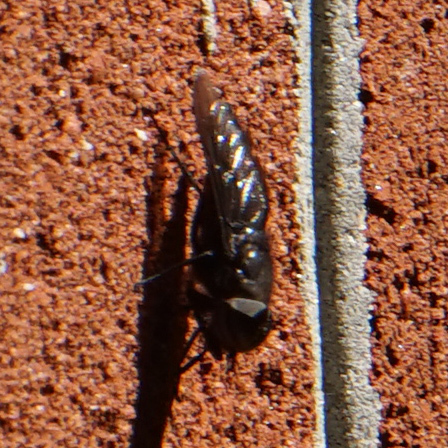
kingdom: Animalia
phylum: Arthropoda
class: Insecta
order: Diptera
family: Tabanidae
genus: Tabanus
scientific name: Tabanus atratus
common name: Black horse fly
